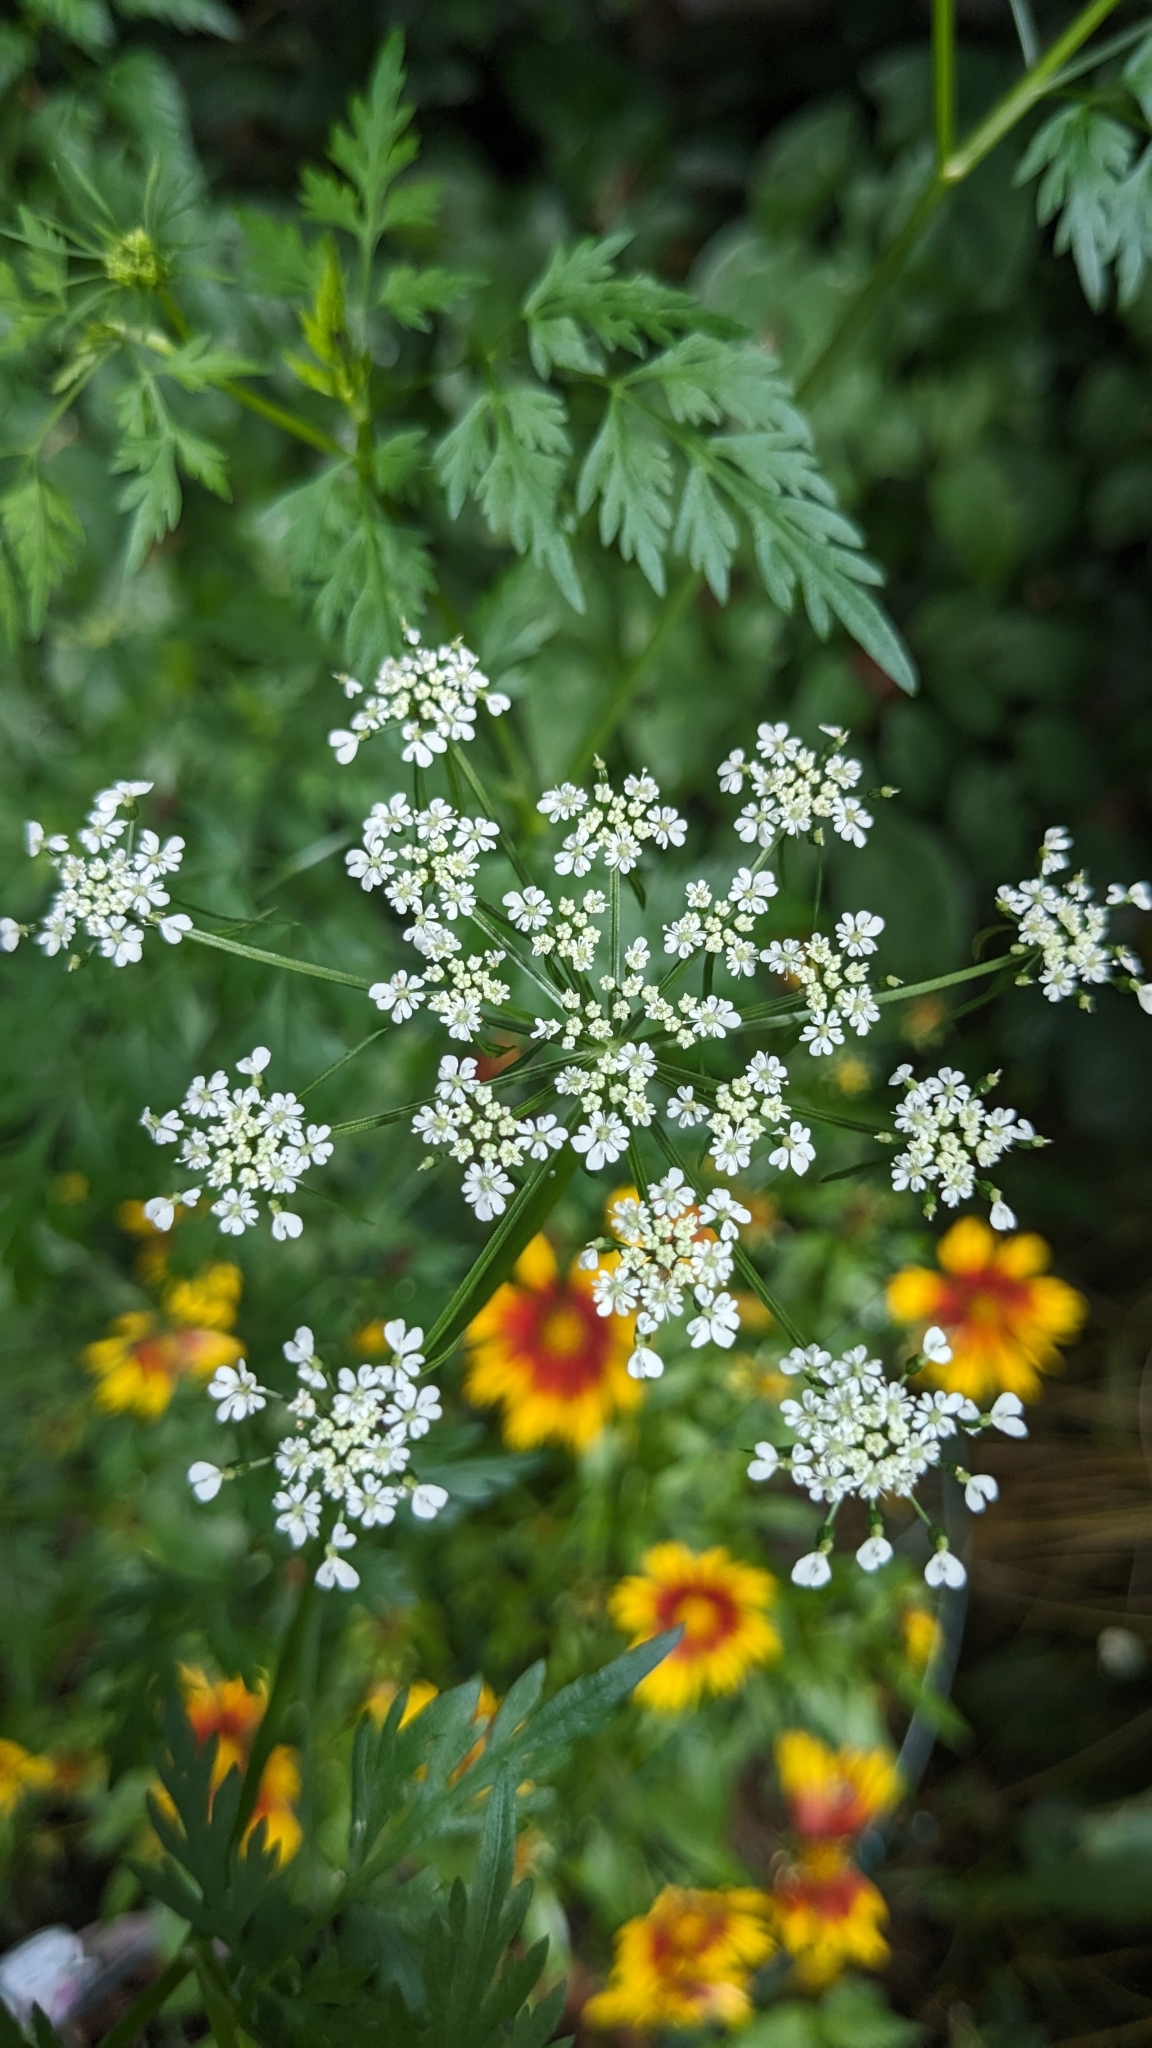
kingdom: Plantae
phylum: Tracheophyta
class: Magnoliopsida
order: Apiales
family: Apiaceae
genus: Aethusa
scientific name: Aethusa cynapium
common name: Fool's parsley
